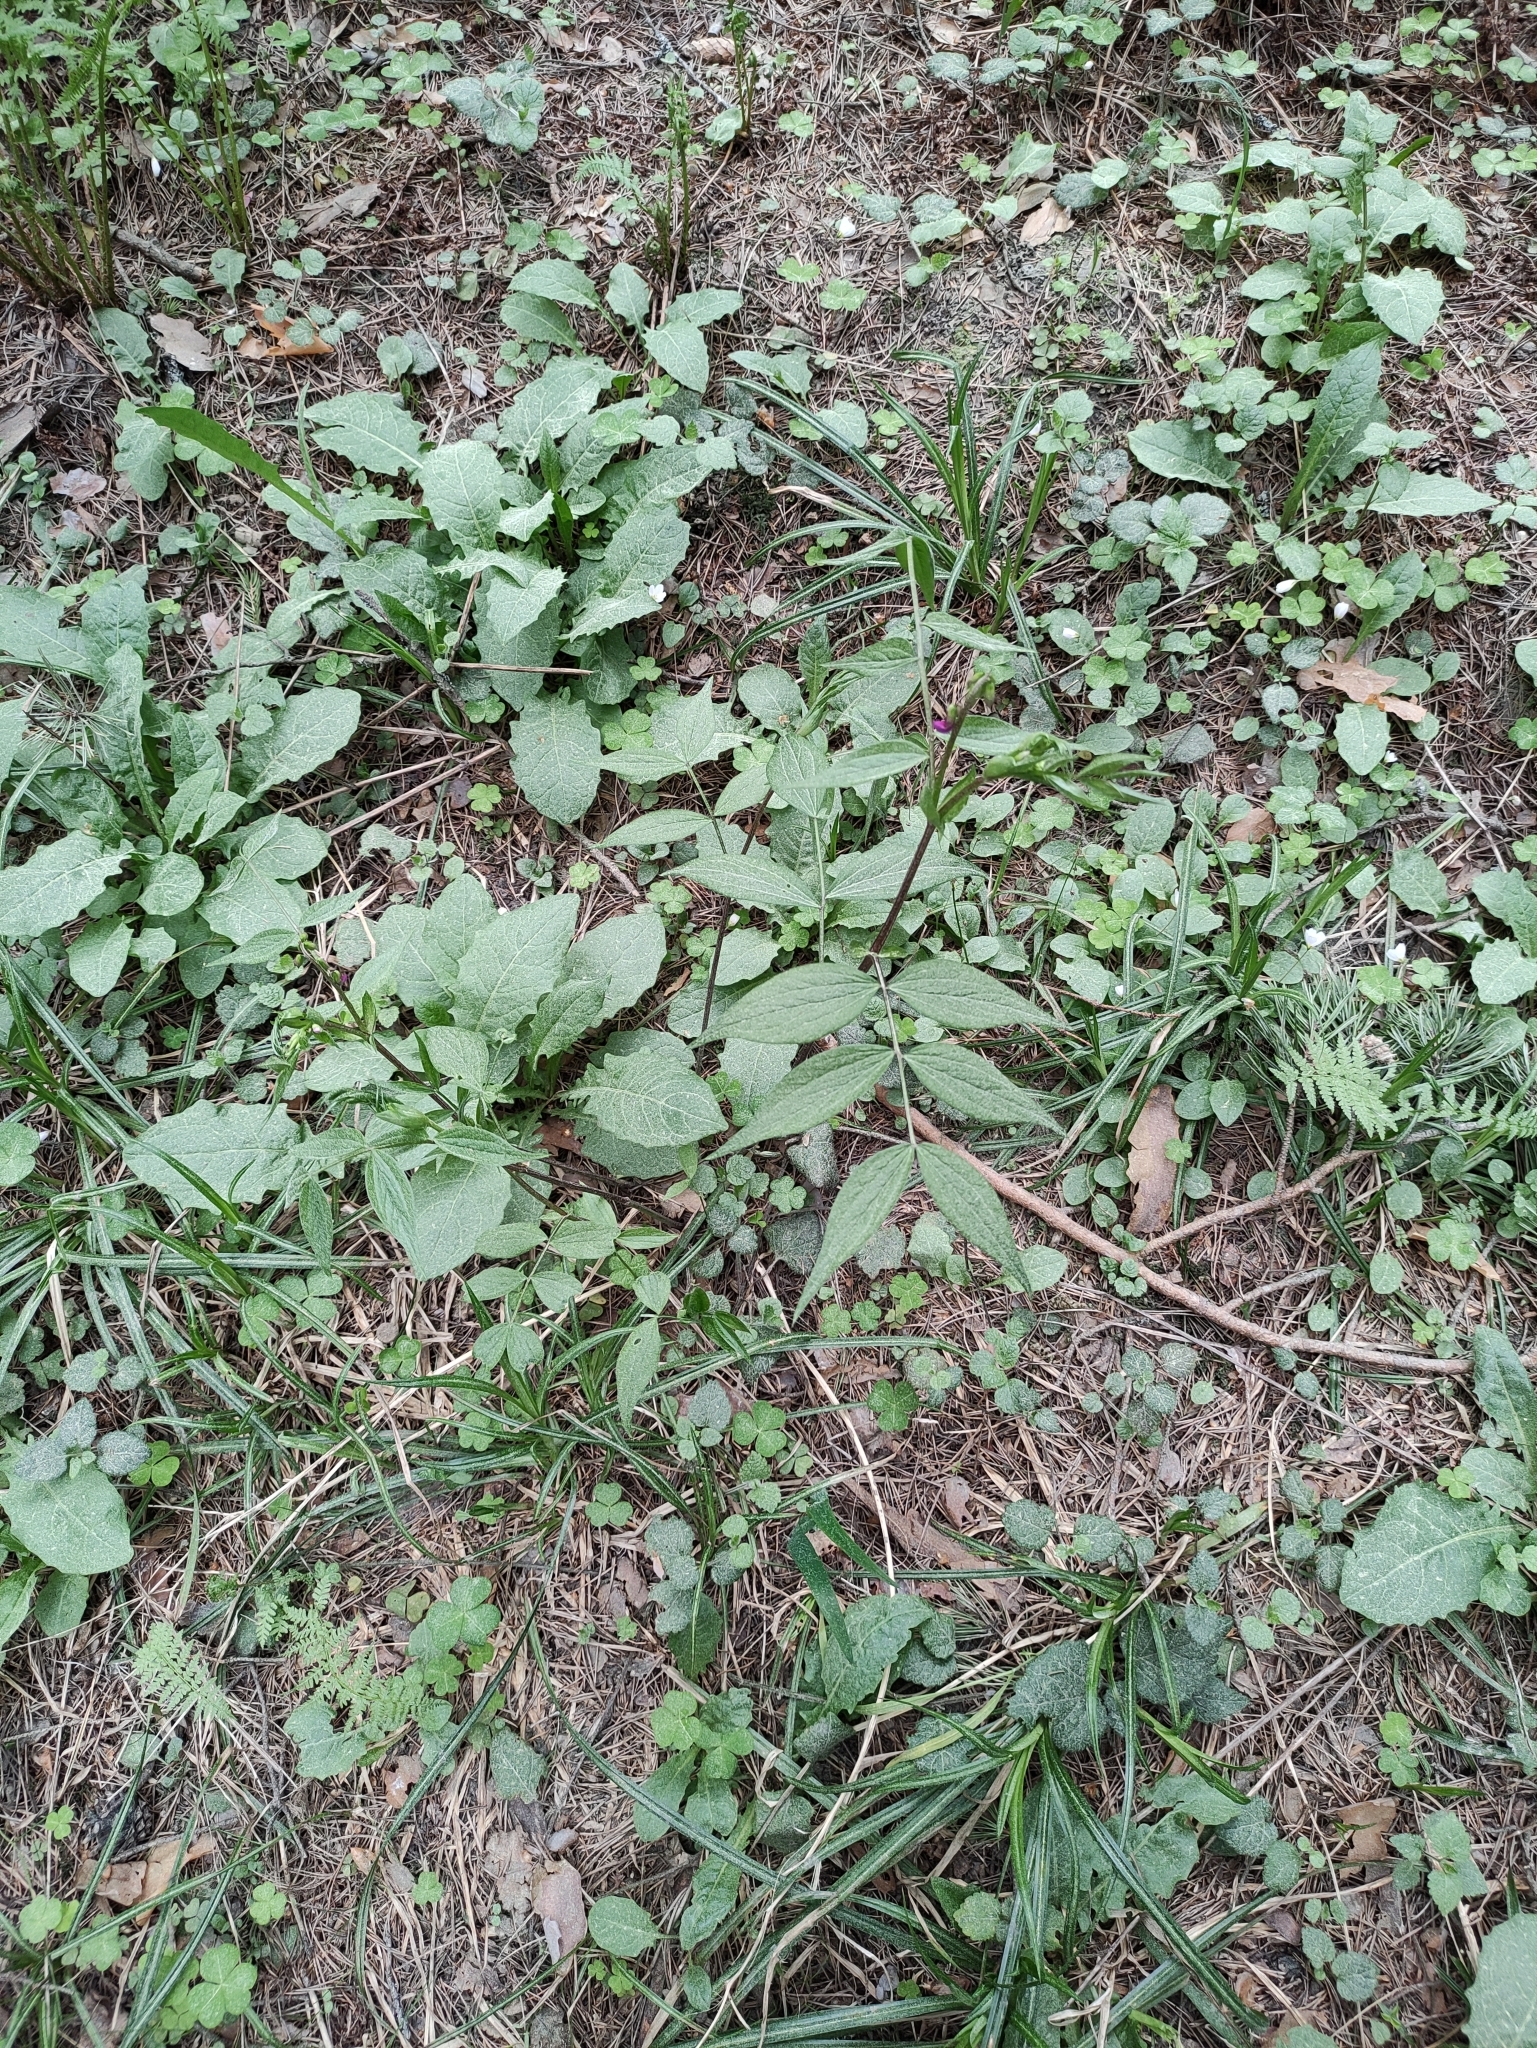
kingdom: Plantae
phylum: Tracheophyta
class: Magnoliopsida
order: Fabales
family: Fabaceae
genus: Lathyrus
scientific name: Lathyrus vernus
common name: Spring pea
